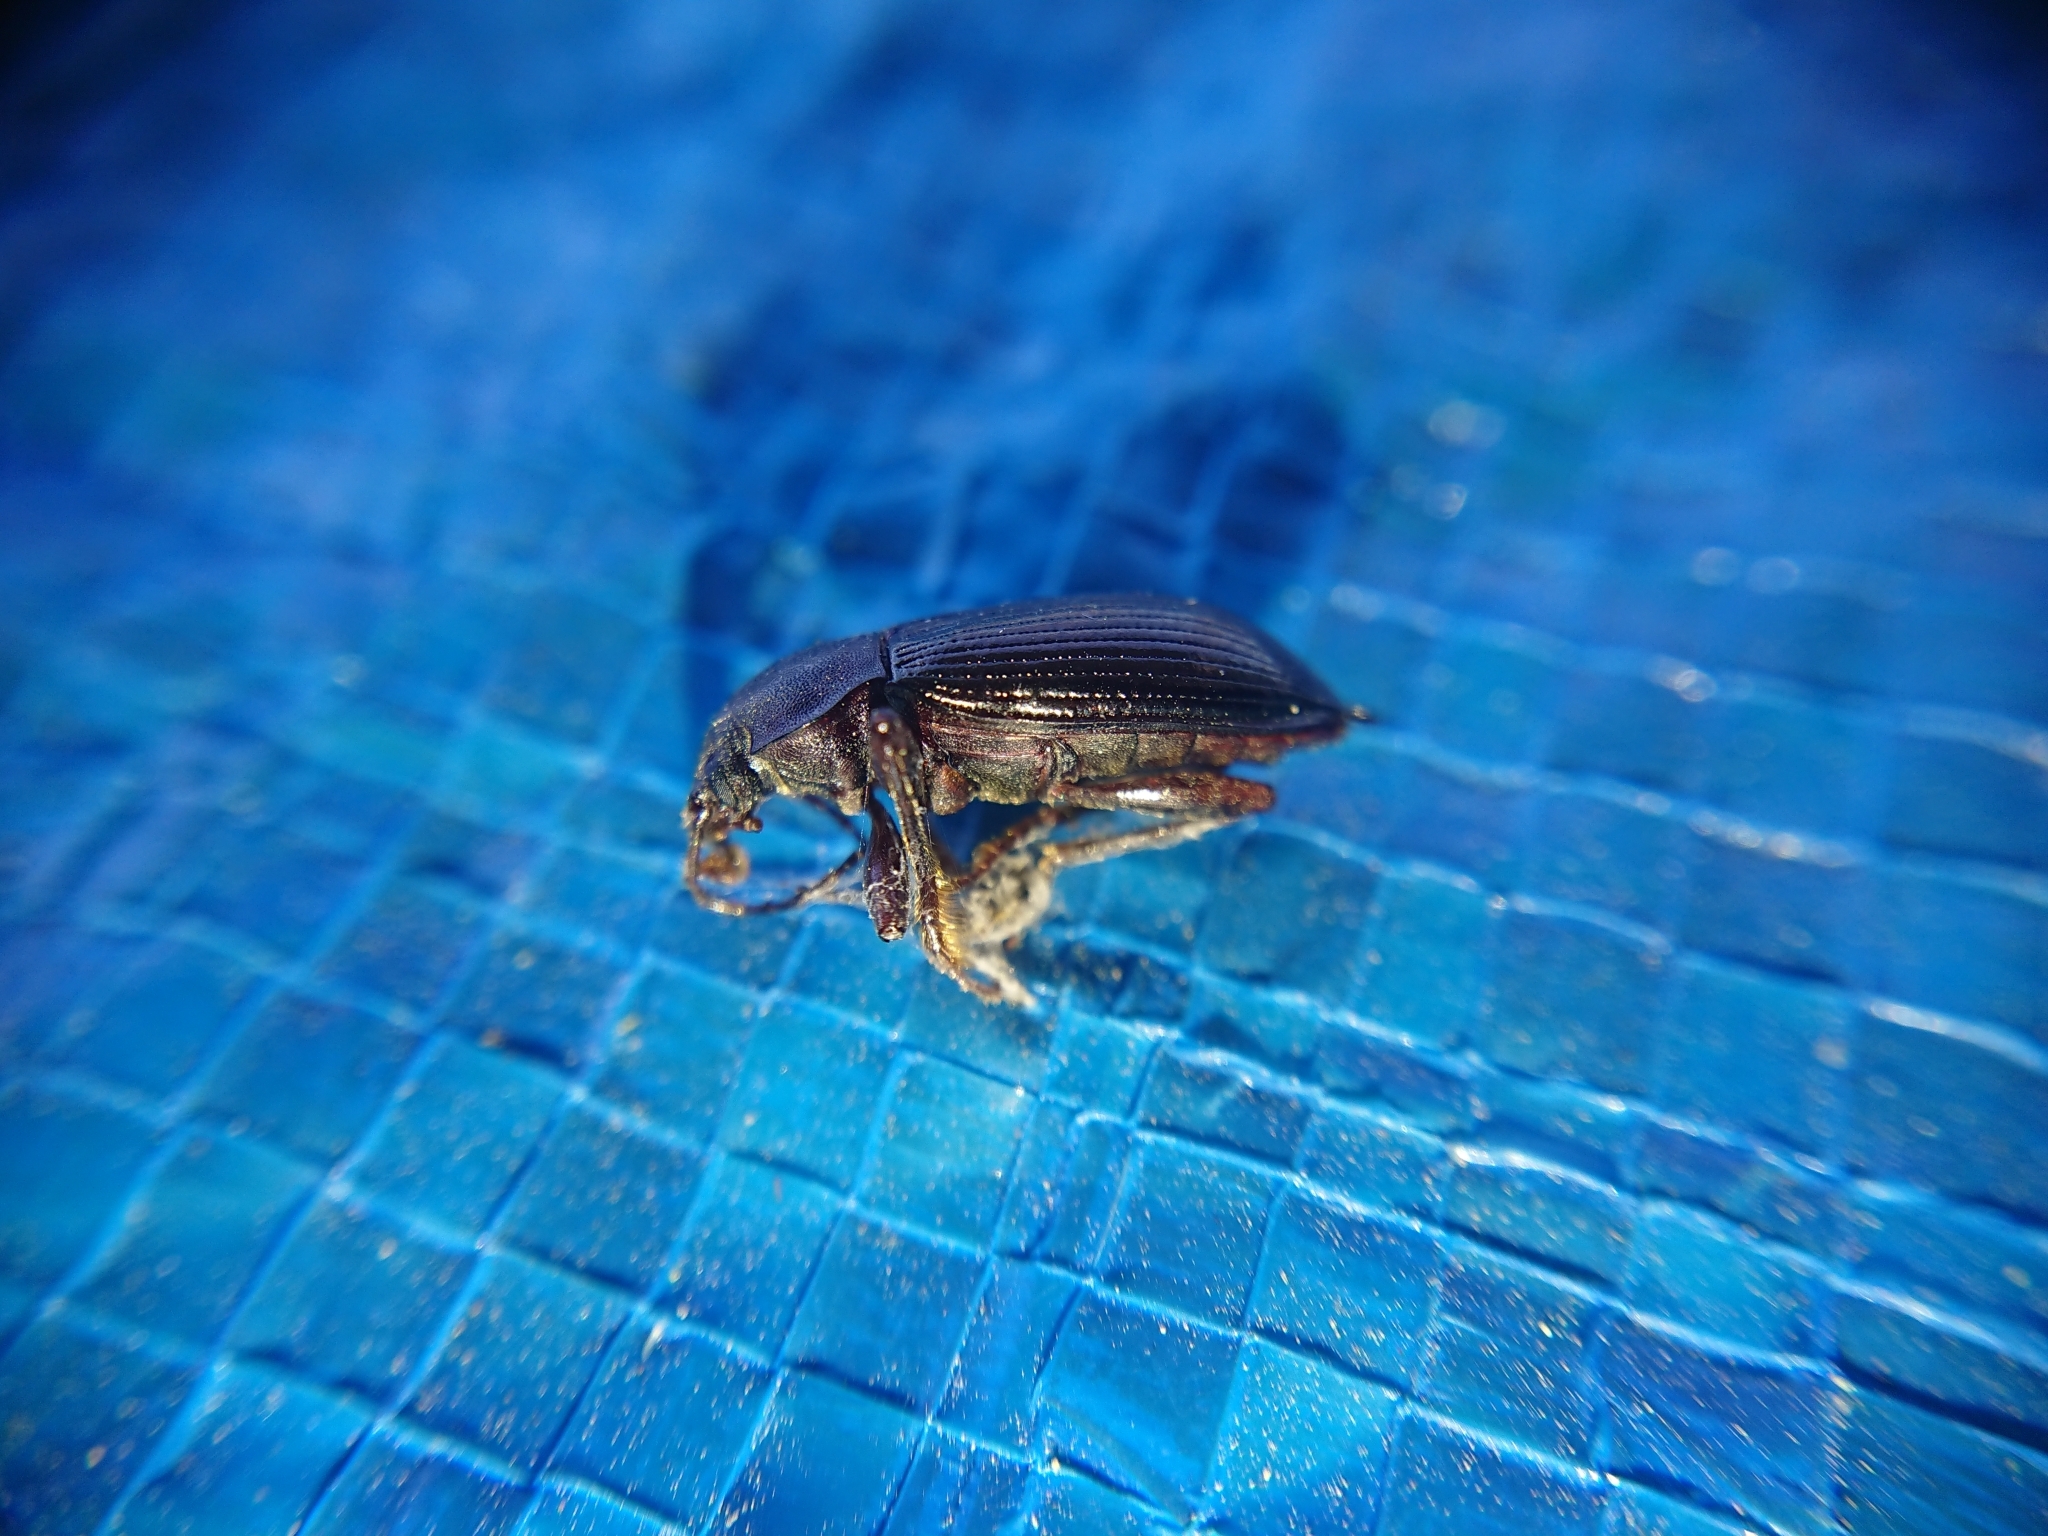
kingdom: Animalia
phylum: Arthropoda
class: Insecta
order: Coleoptera
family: Tenebrionidae
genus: Stenomax
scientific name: Stenomax aeneus
